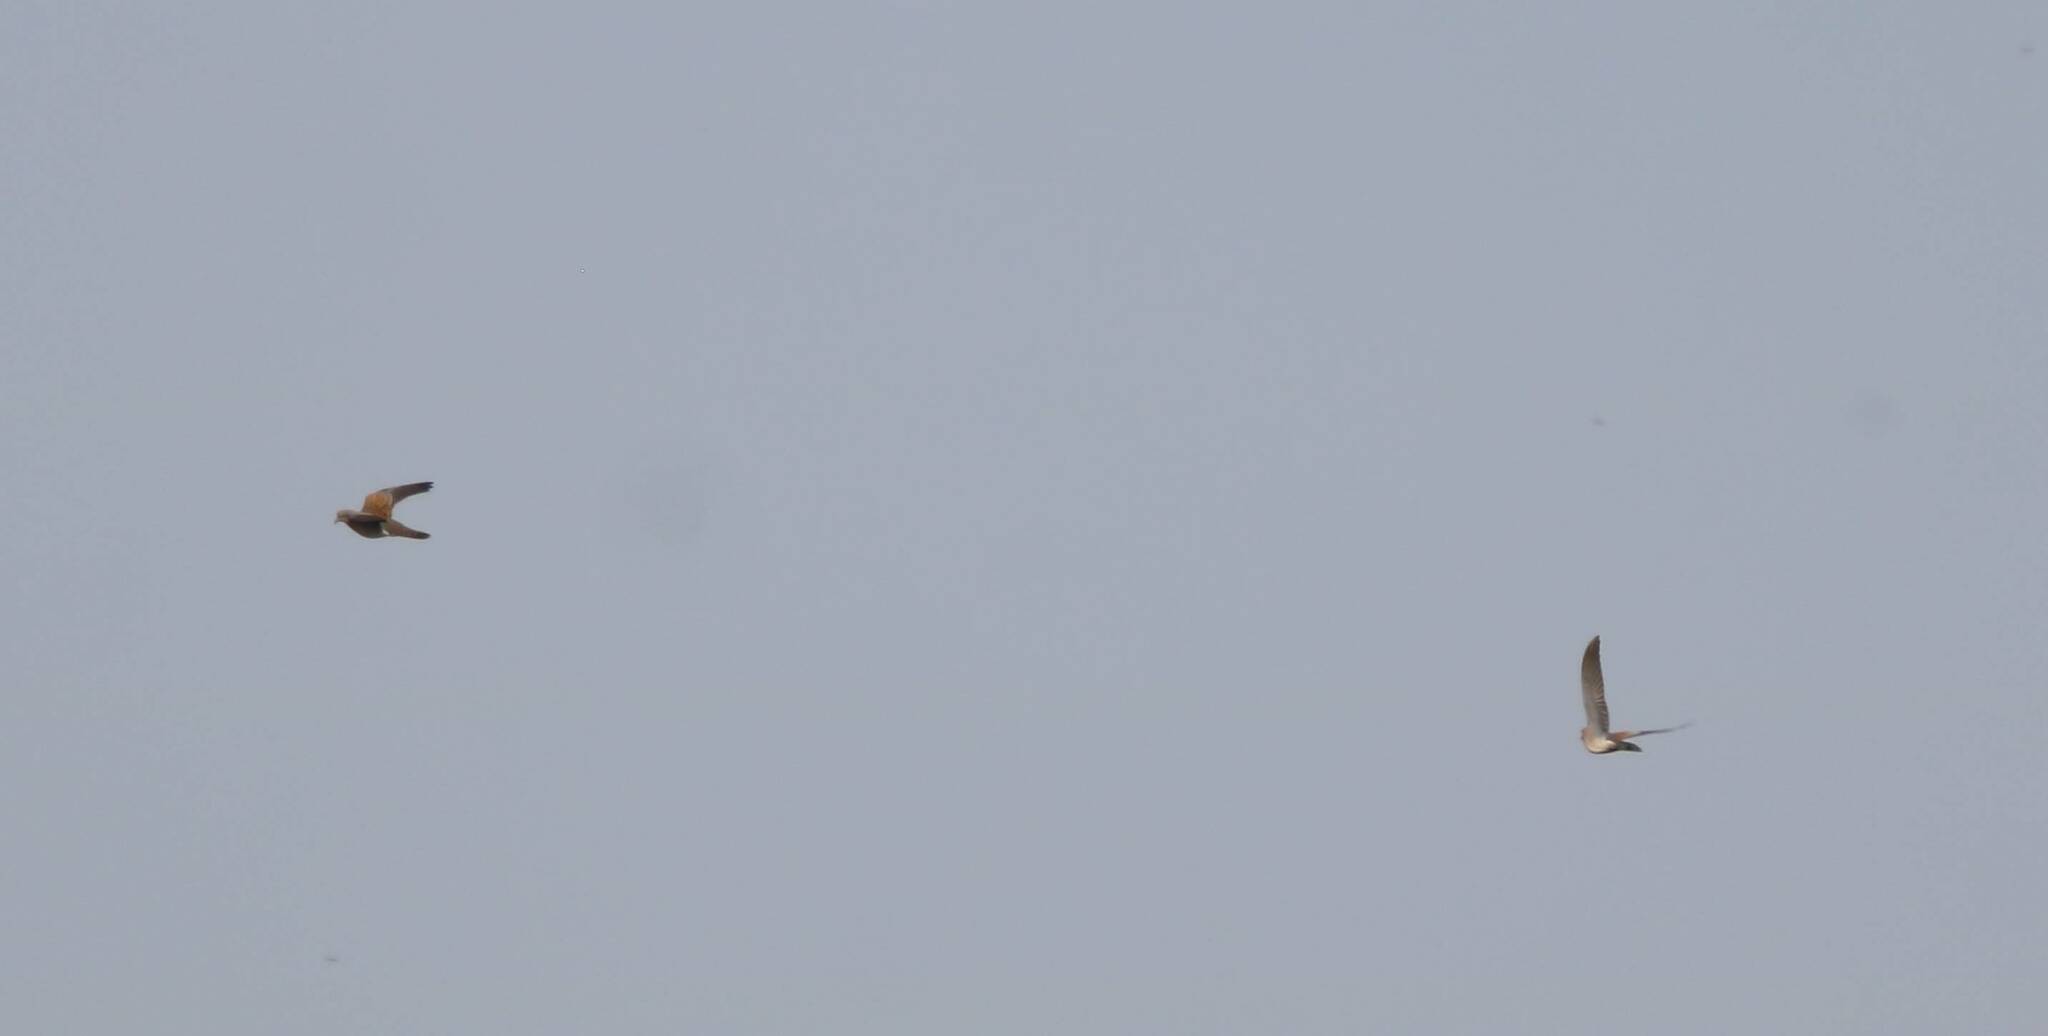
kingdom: Animalia
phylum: Chordata
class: Aves
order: Columbiformes
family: Columbidae
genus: Streptopelia
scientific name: Streptopelia turtur
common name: European turtle dove
